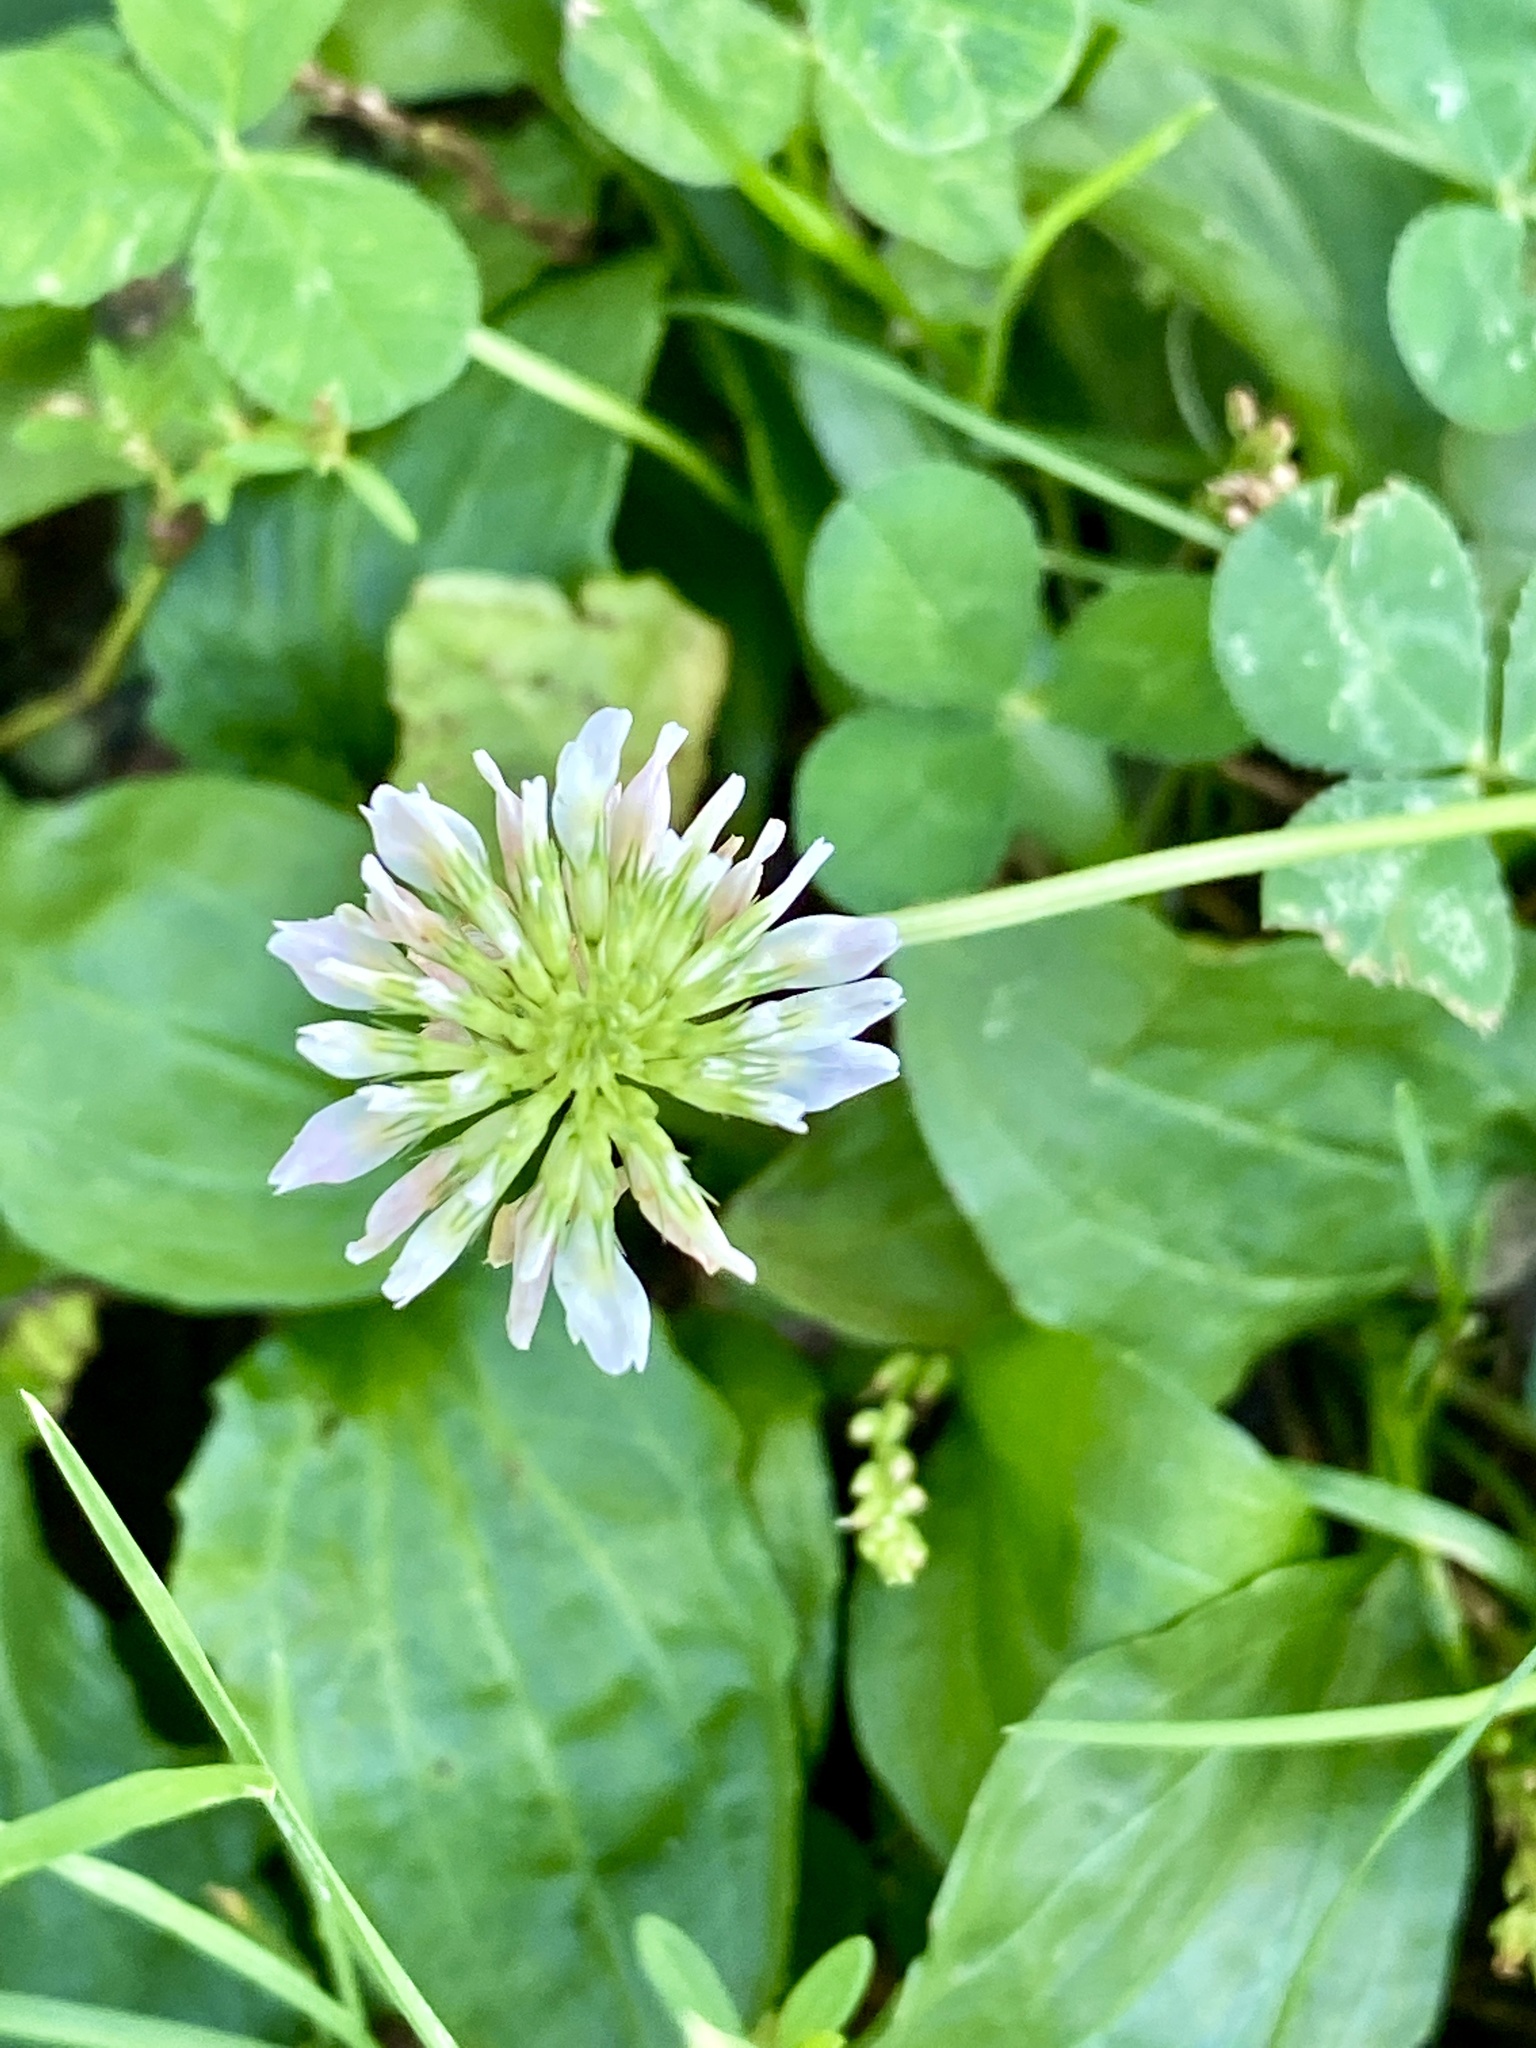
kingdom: Plantae
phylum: Tracheophyta
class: Magnoliopsida
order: Fabales
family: Fabaceae
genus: Trifolium
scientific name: Trifolium repens
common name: White clover
